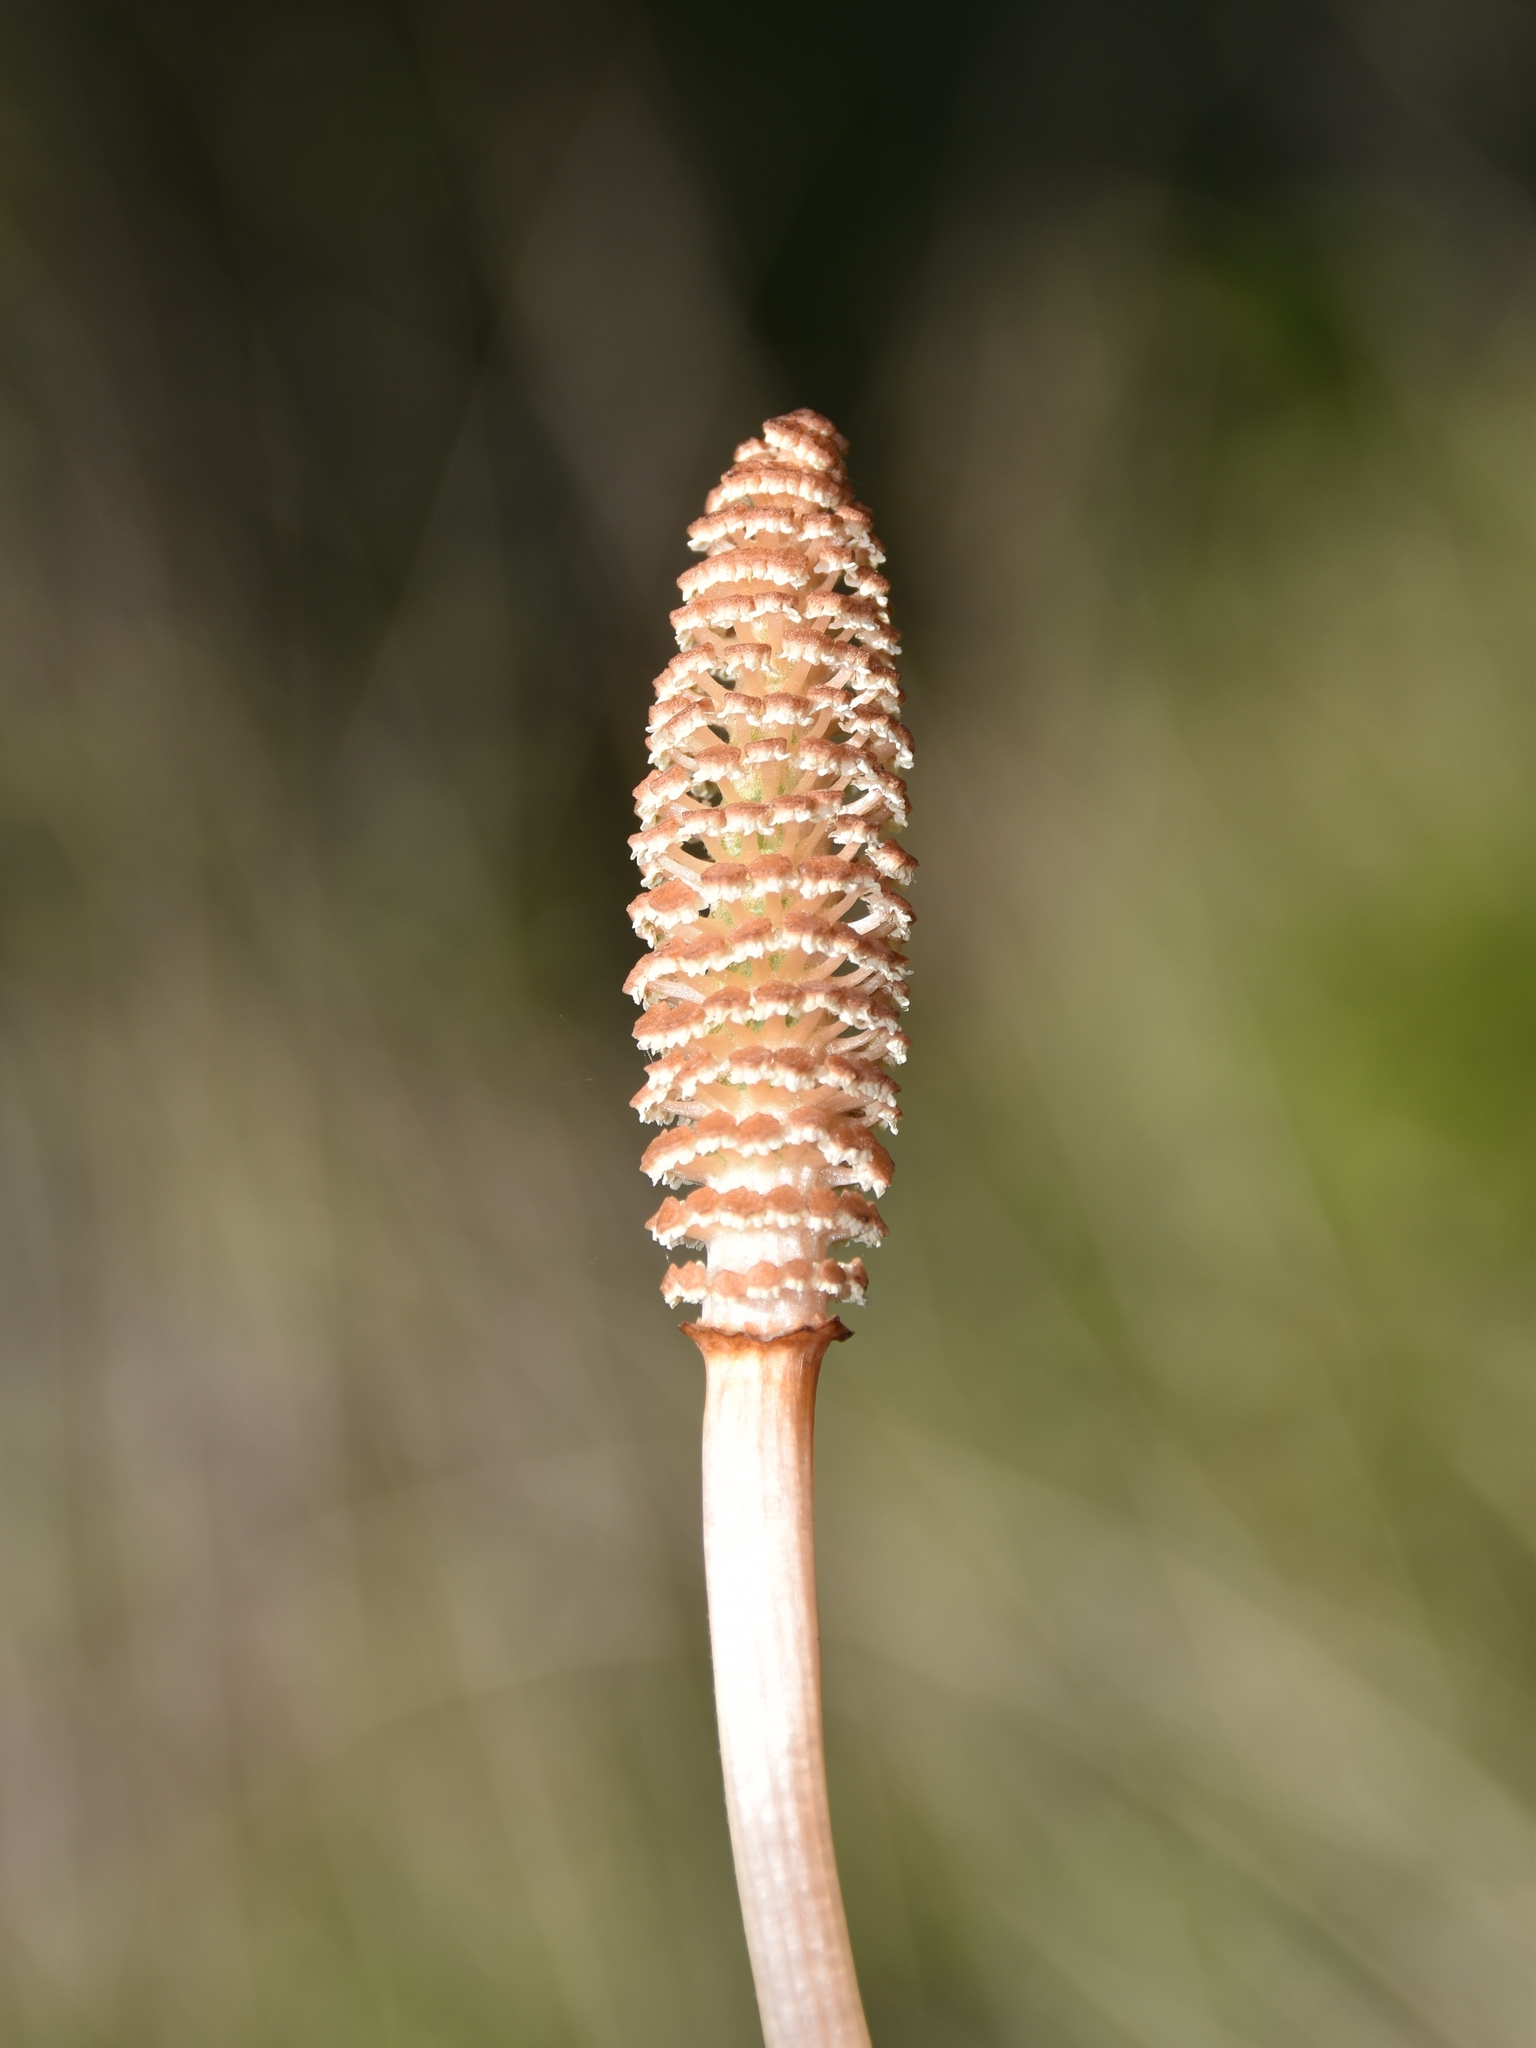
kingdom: Plantae
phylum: Tracheophyta
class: Polypodiopsida
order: Equisetales
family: Equisetaceae
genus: Equisetum
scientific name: Equisetum arvense
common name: Field horsetail
